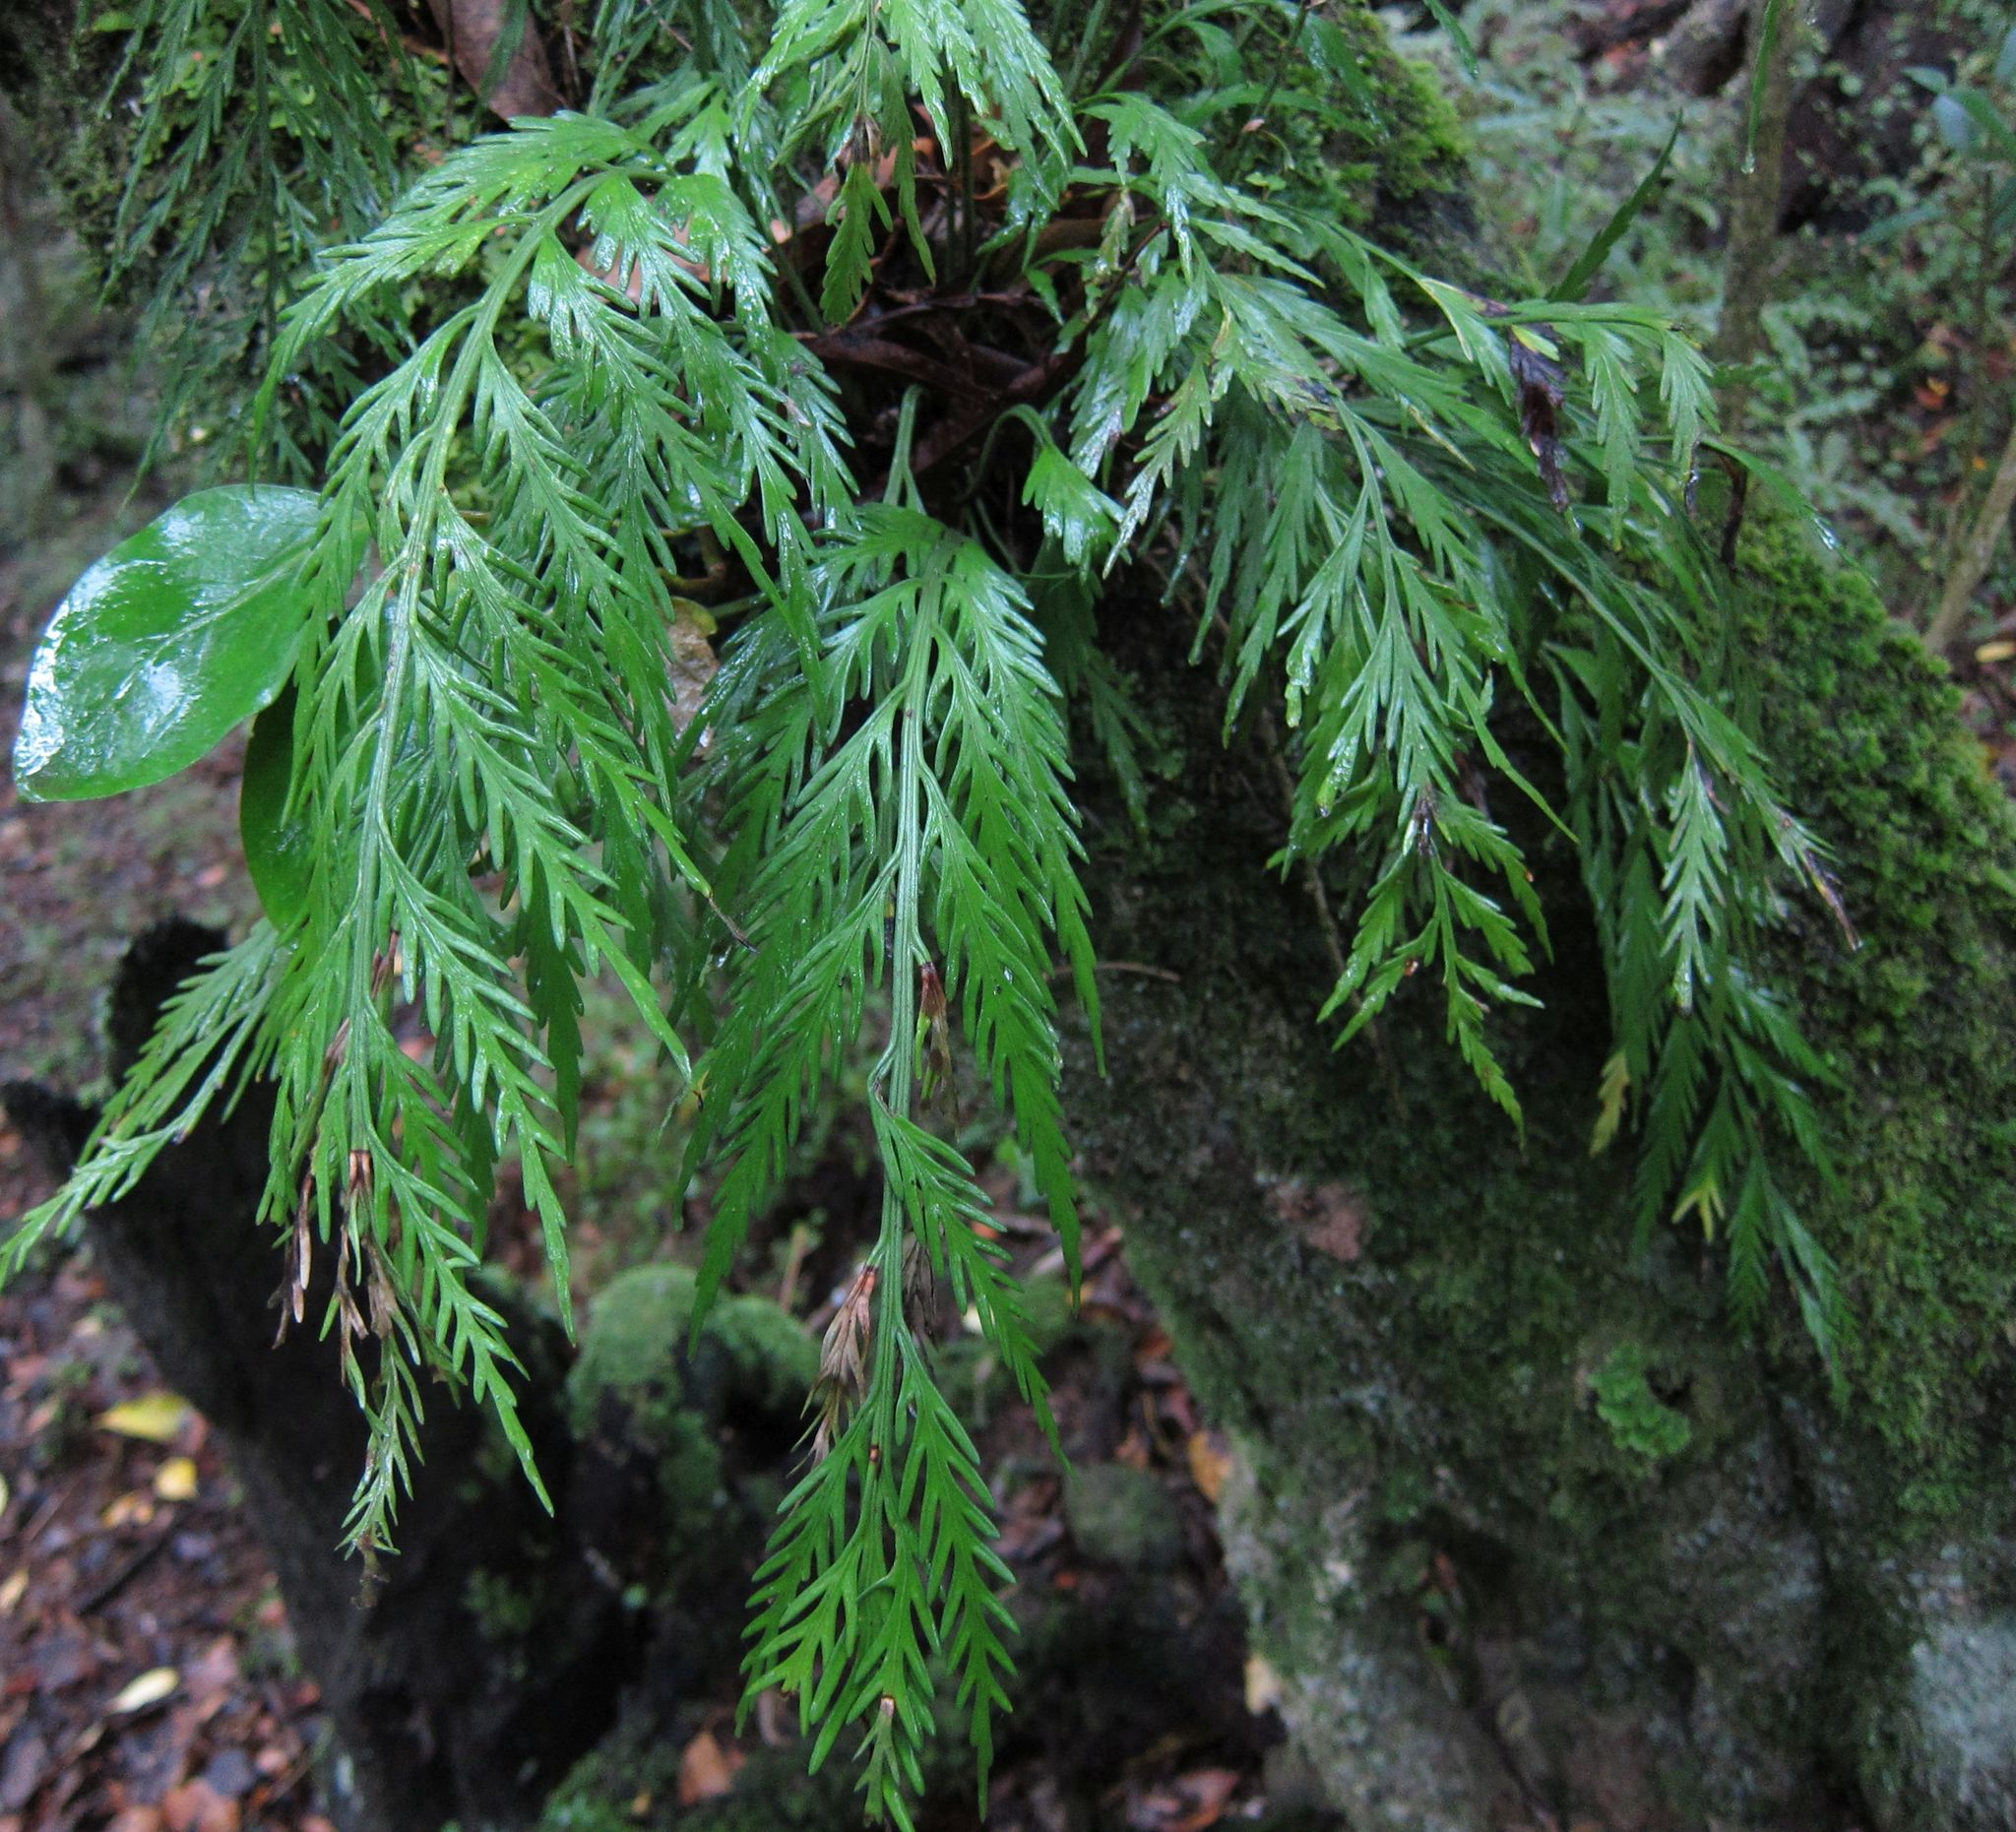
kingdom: Plantae
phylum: Tracheophyta
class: Polypodiopsida
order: Polypodiales
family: Aspleniaceae
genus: Asplenium
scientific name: Asplenium flaccidum
